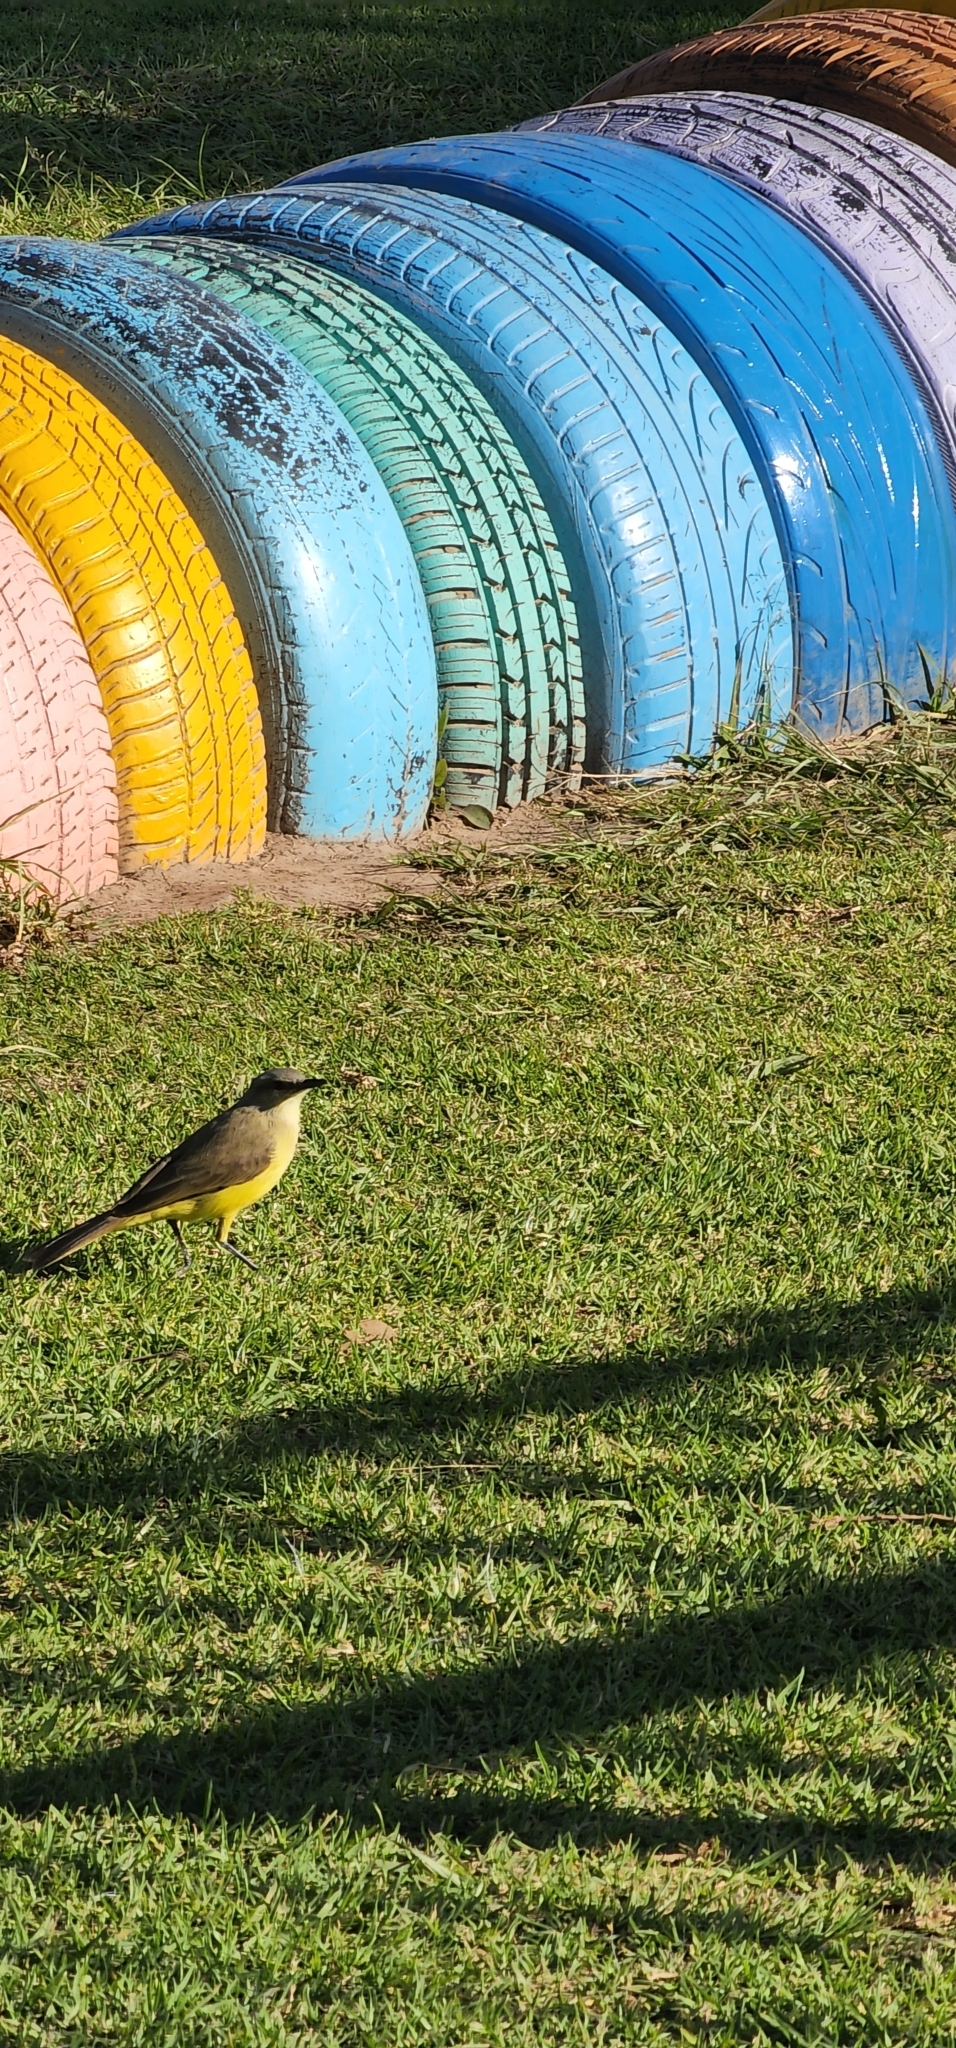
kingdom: Animalia
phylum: Chordata
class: Aves
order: Passeriformes
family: Tyrannidae
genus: Machetornis
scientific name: Machetornis rixosa
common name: Cattle tyrant
